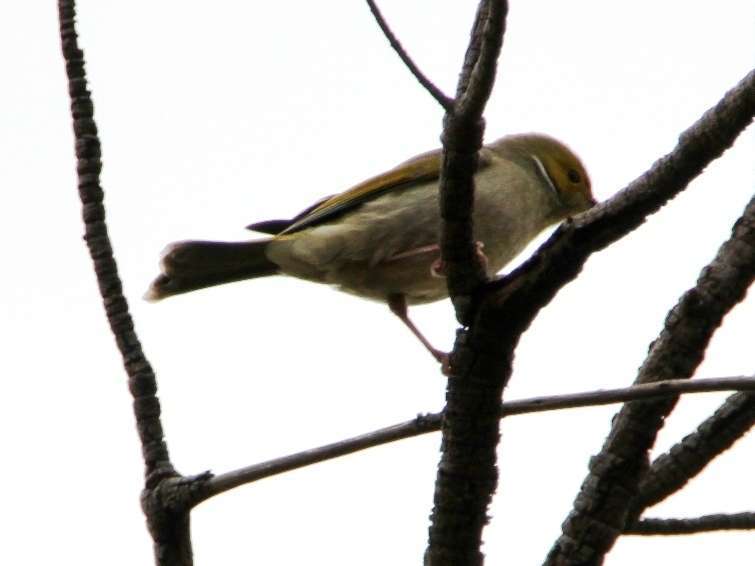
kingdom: Animalia
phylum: Chordata
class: Aves
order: Passeriformes
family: Meliphagidae
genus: Ptilotula
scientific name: Ptilotula penicillata
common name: White-plumed honeyeater
